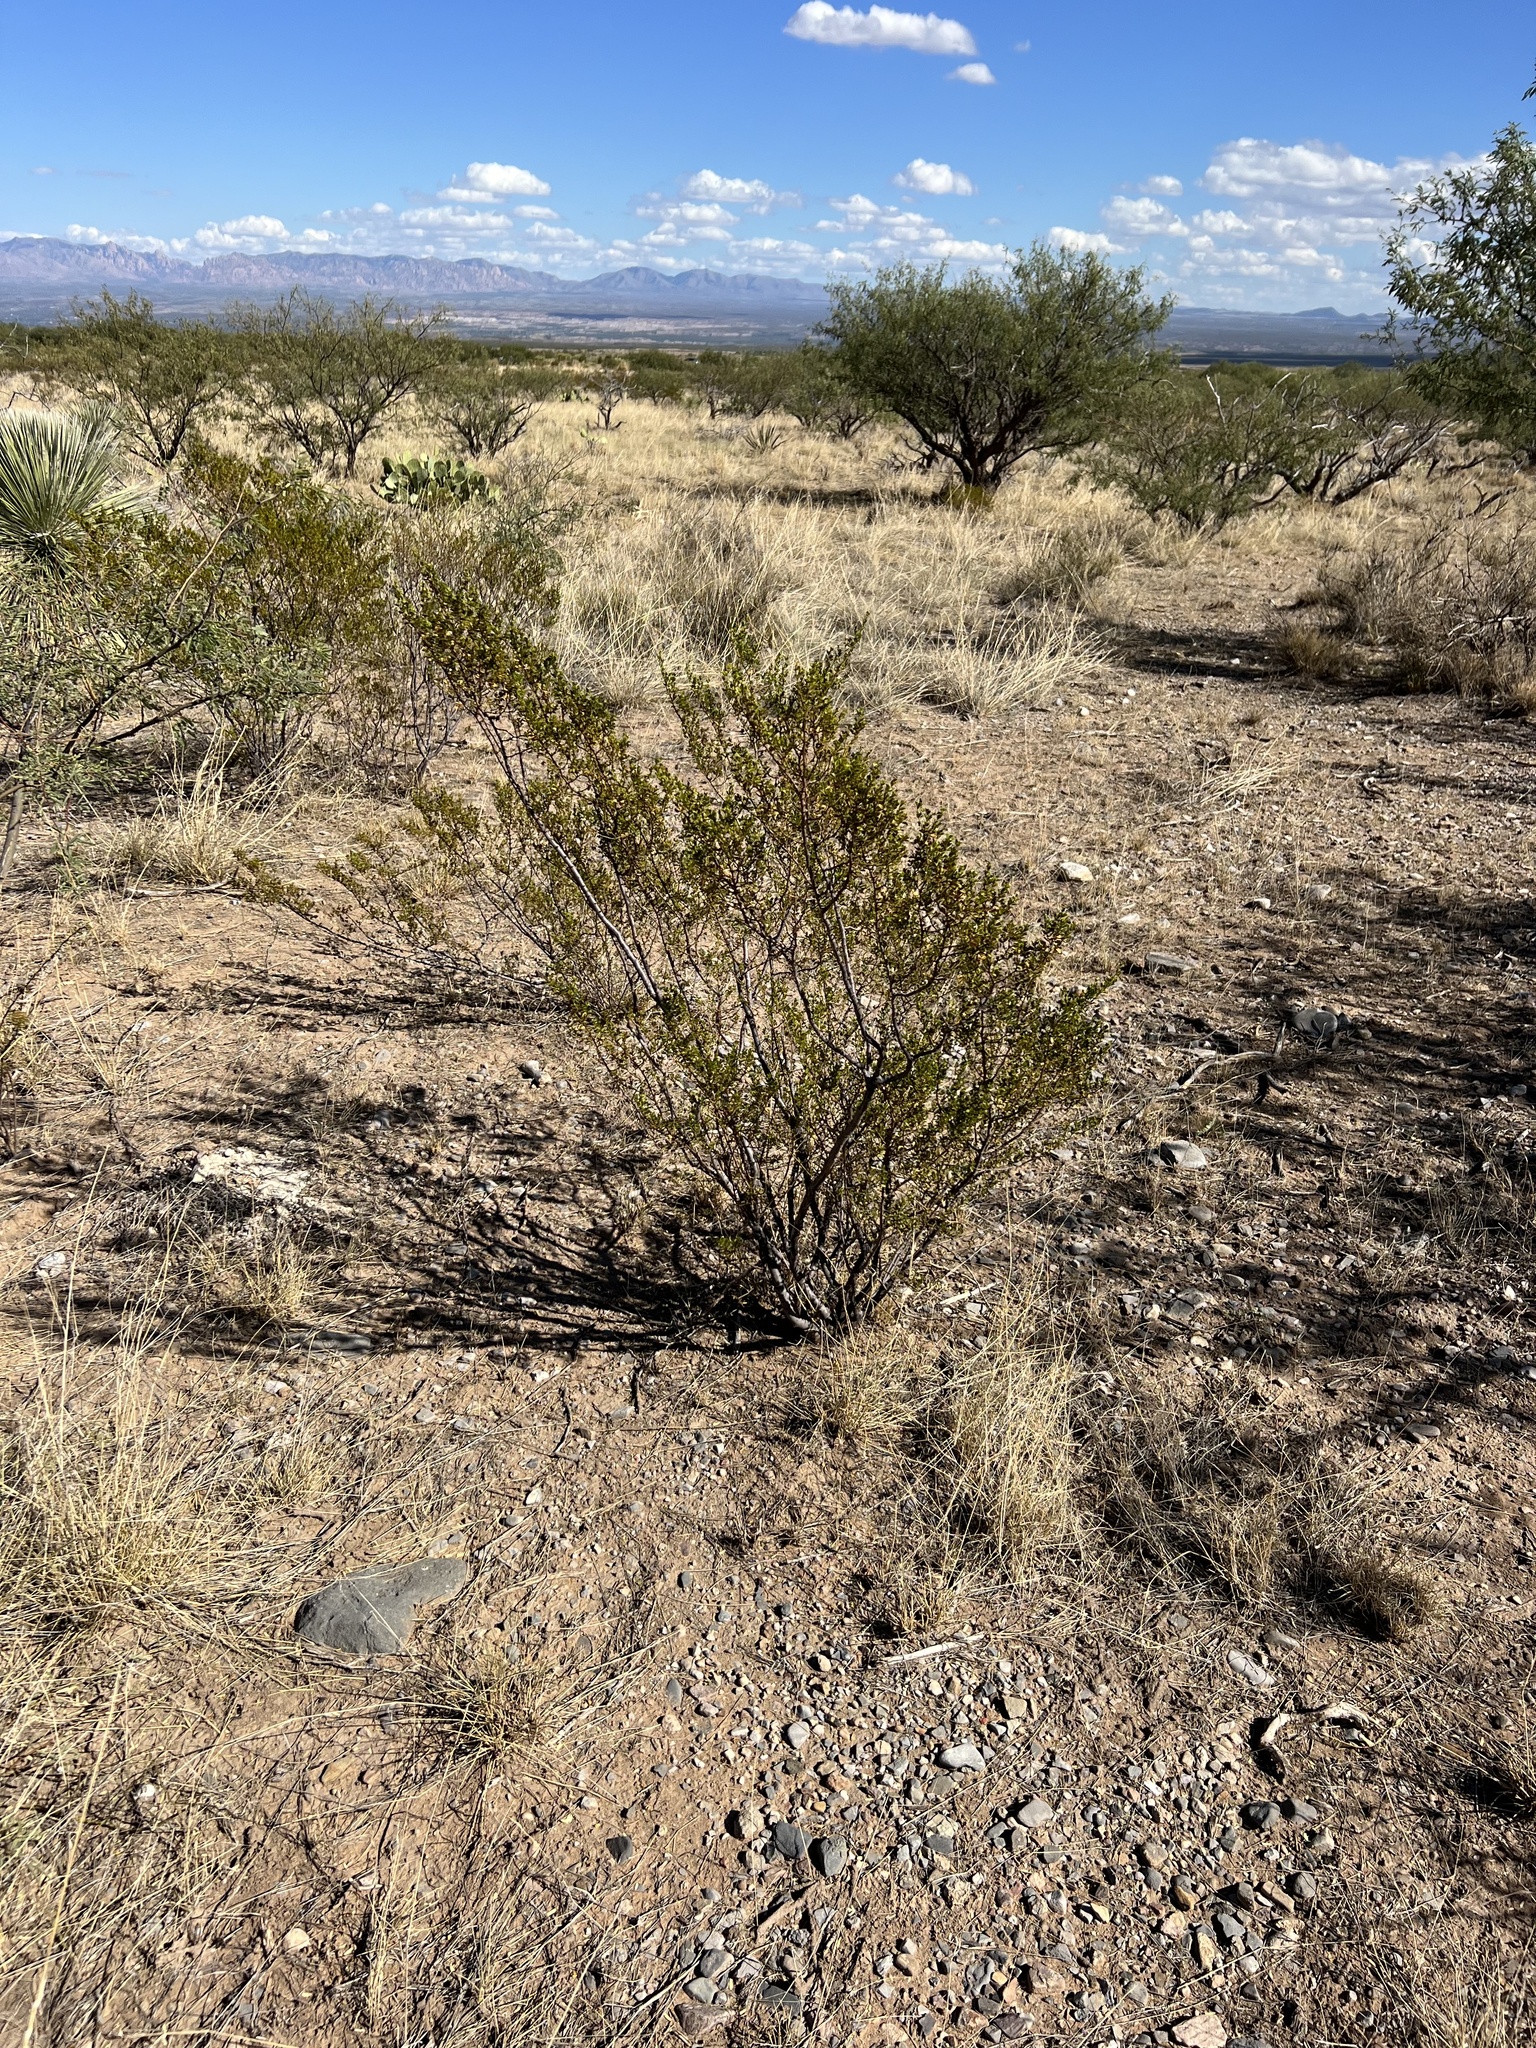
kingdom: Plantae
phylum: Tracheophyta
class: Magnoliopsida
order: Zygophyllales
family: Zygophyllaceae
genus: Larrea
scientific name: Larrea tridentata
